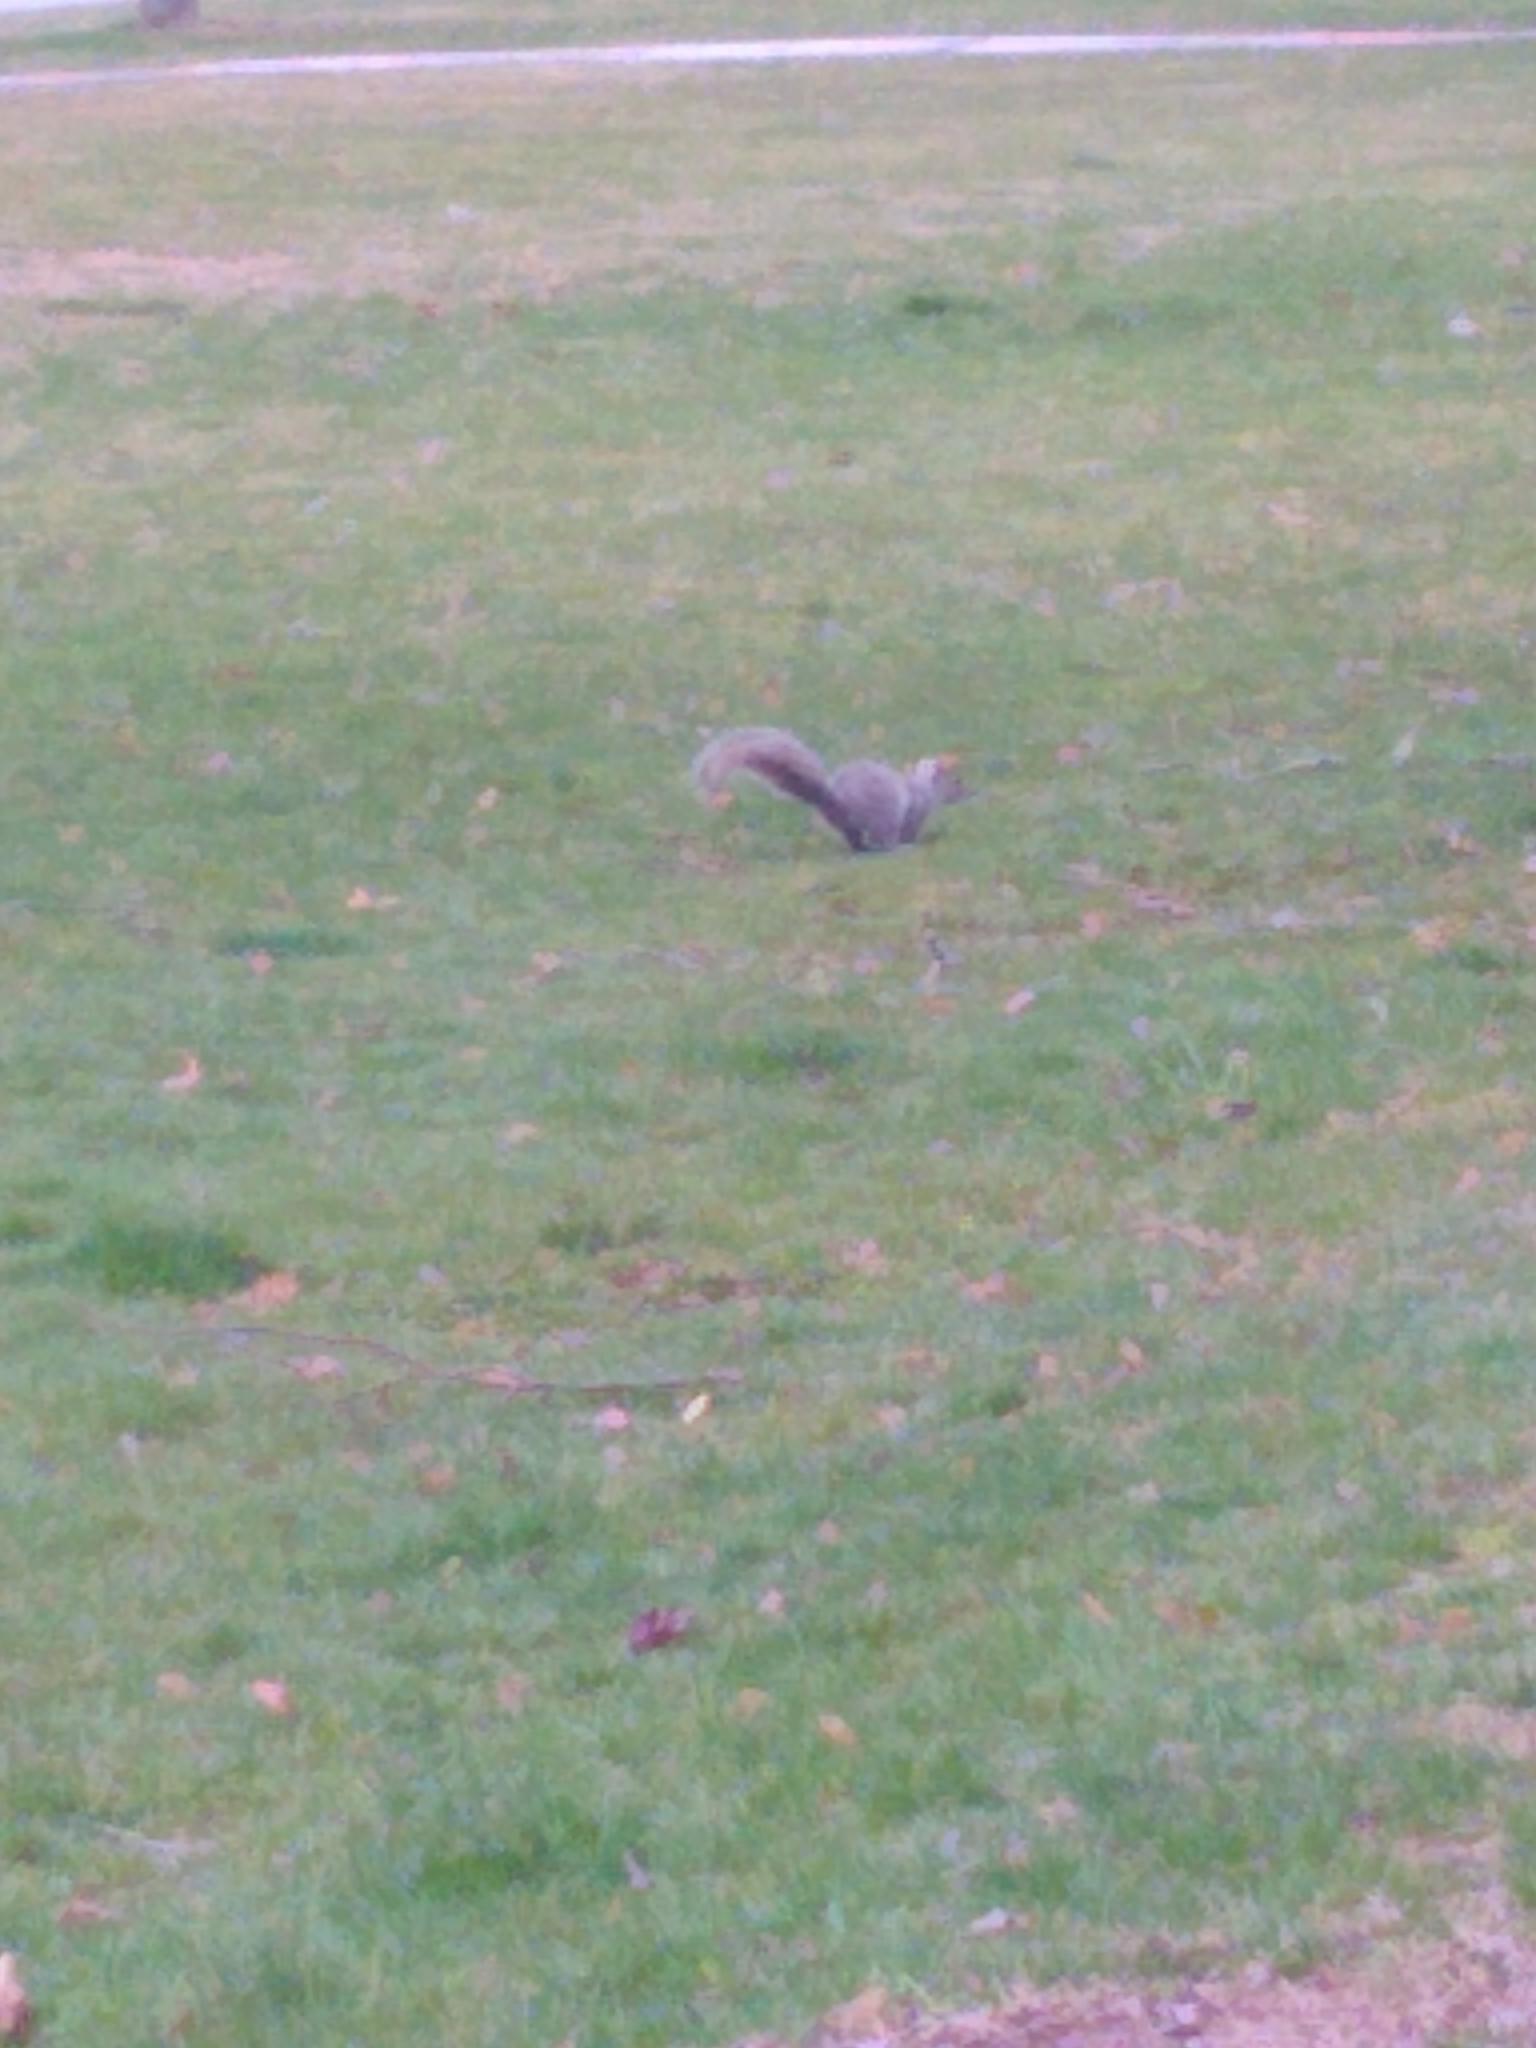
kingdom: Animalia
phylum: Chordata
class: Mammalia
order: Rodentia
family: Sciuridae
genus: Sciurus
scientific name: Sciurus carolinensis
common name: Eastern gray squirrel
